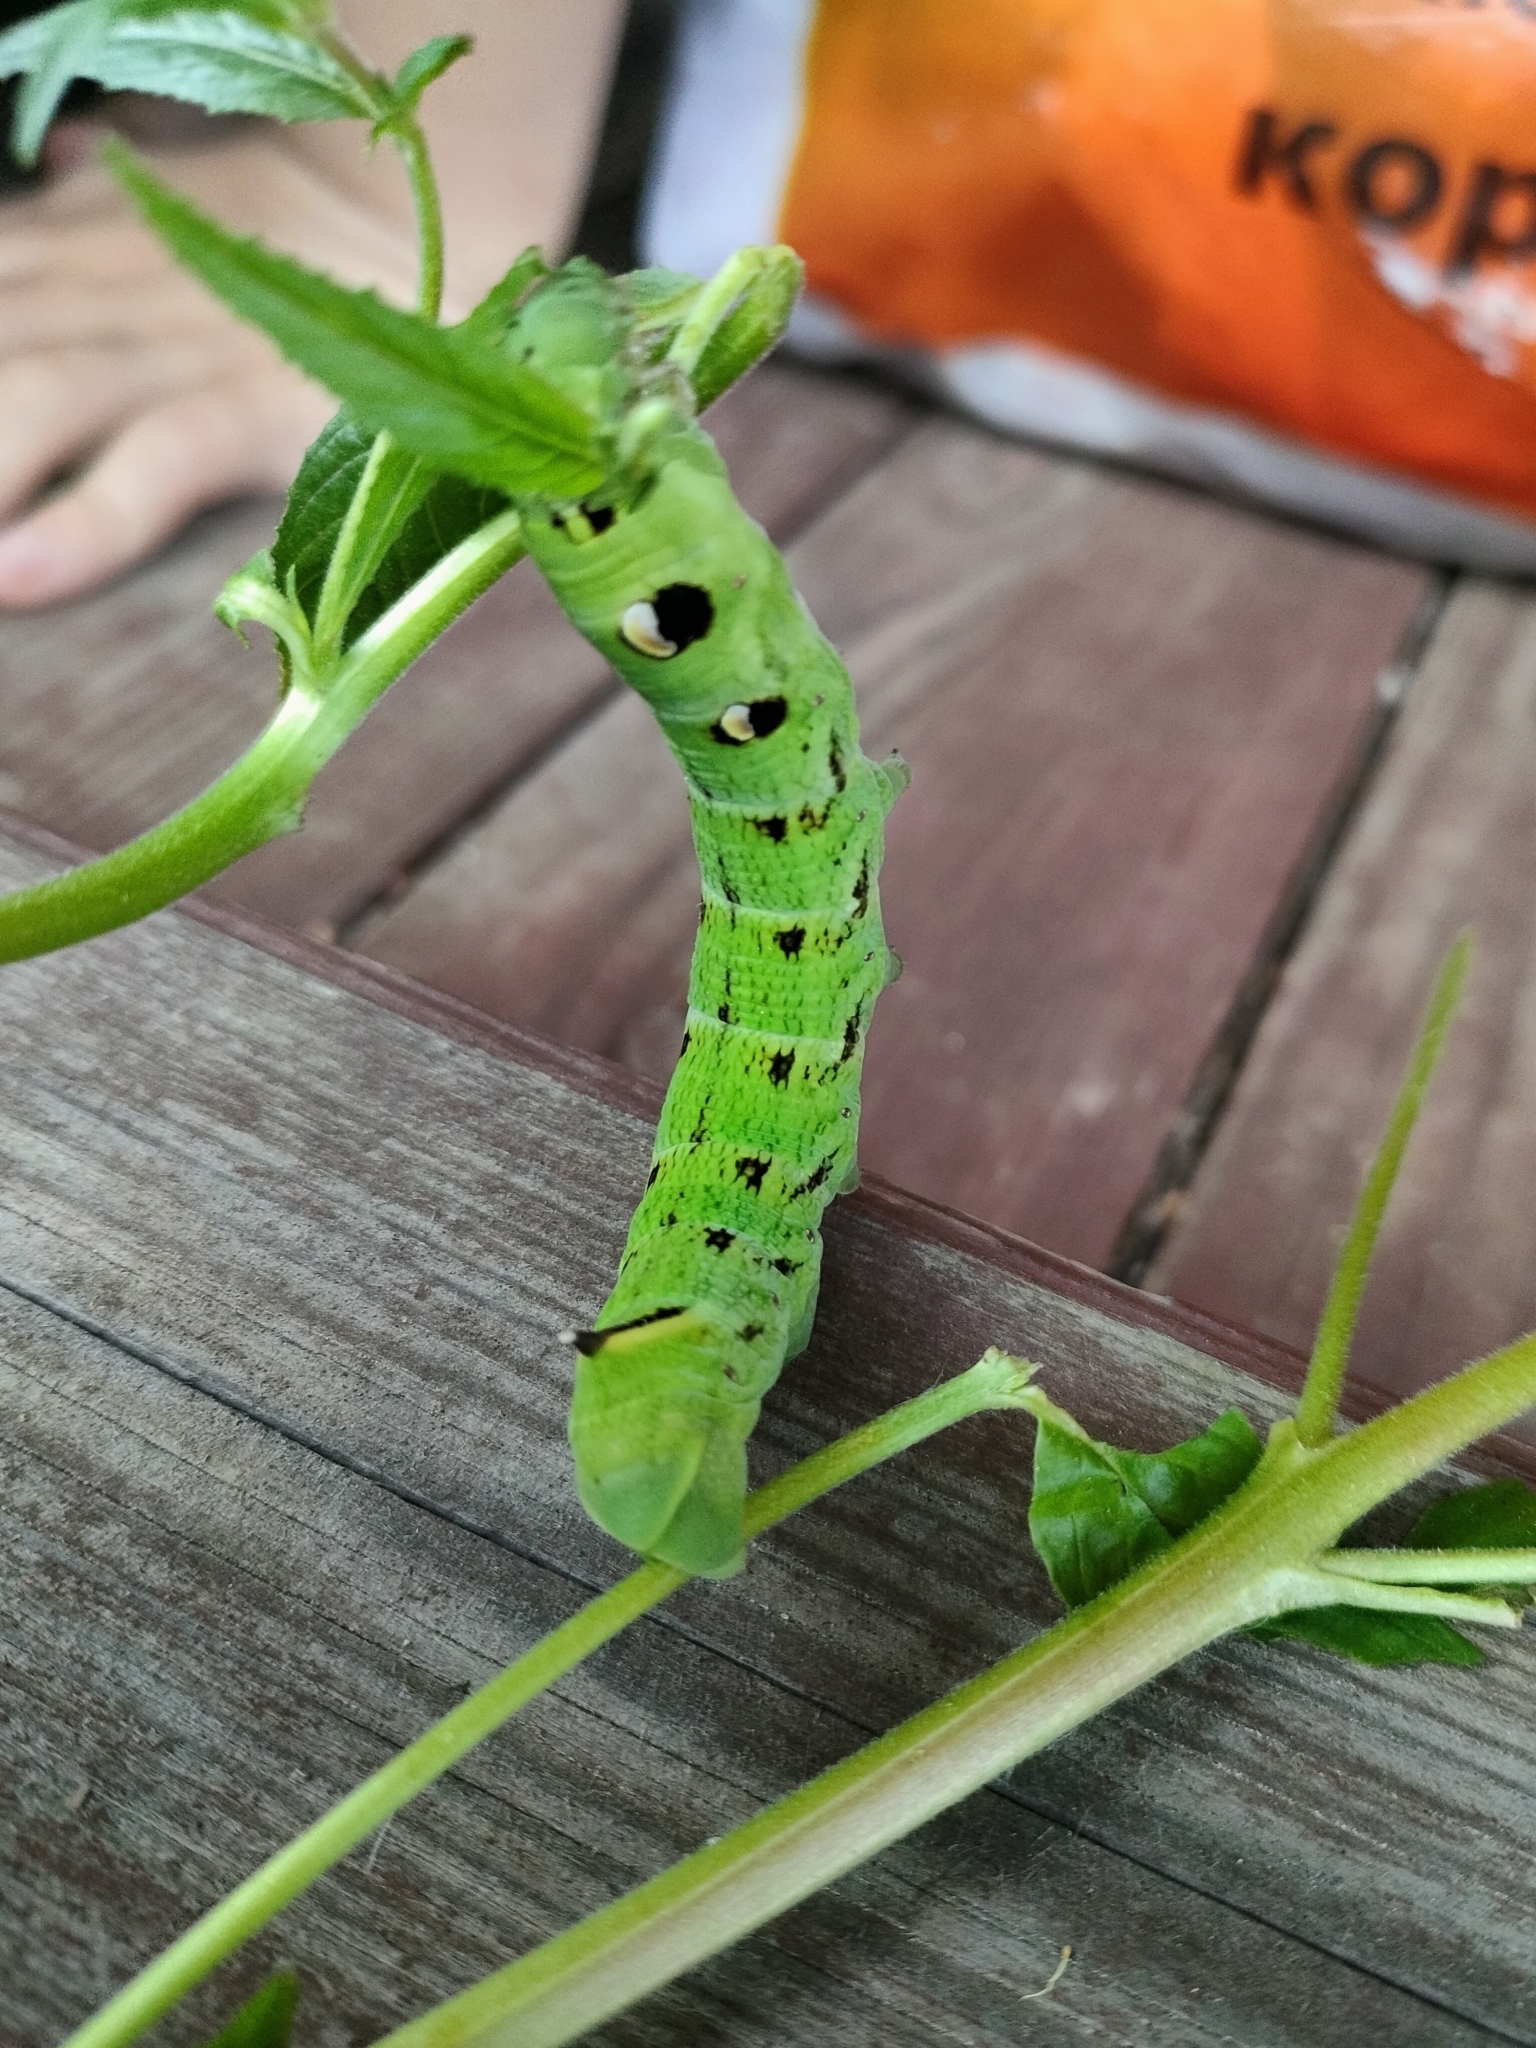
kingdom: Animalia
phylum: Arthropoda
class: Insecta
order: Lepidoptera
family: Sphingidae
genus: Deilephila
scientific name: Deilephila elpenor
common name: Elephant hawk-moth
